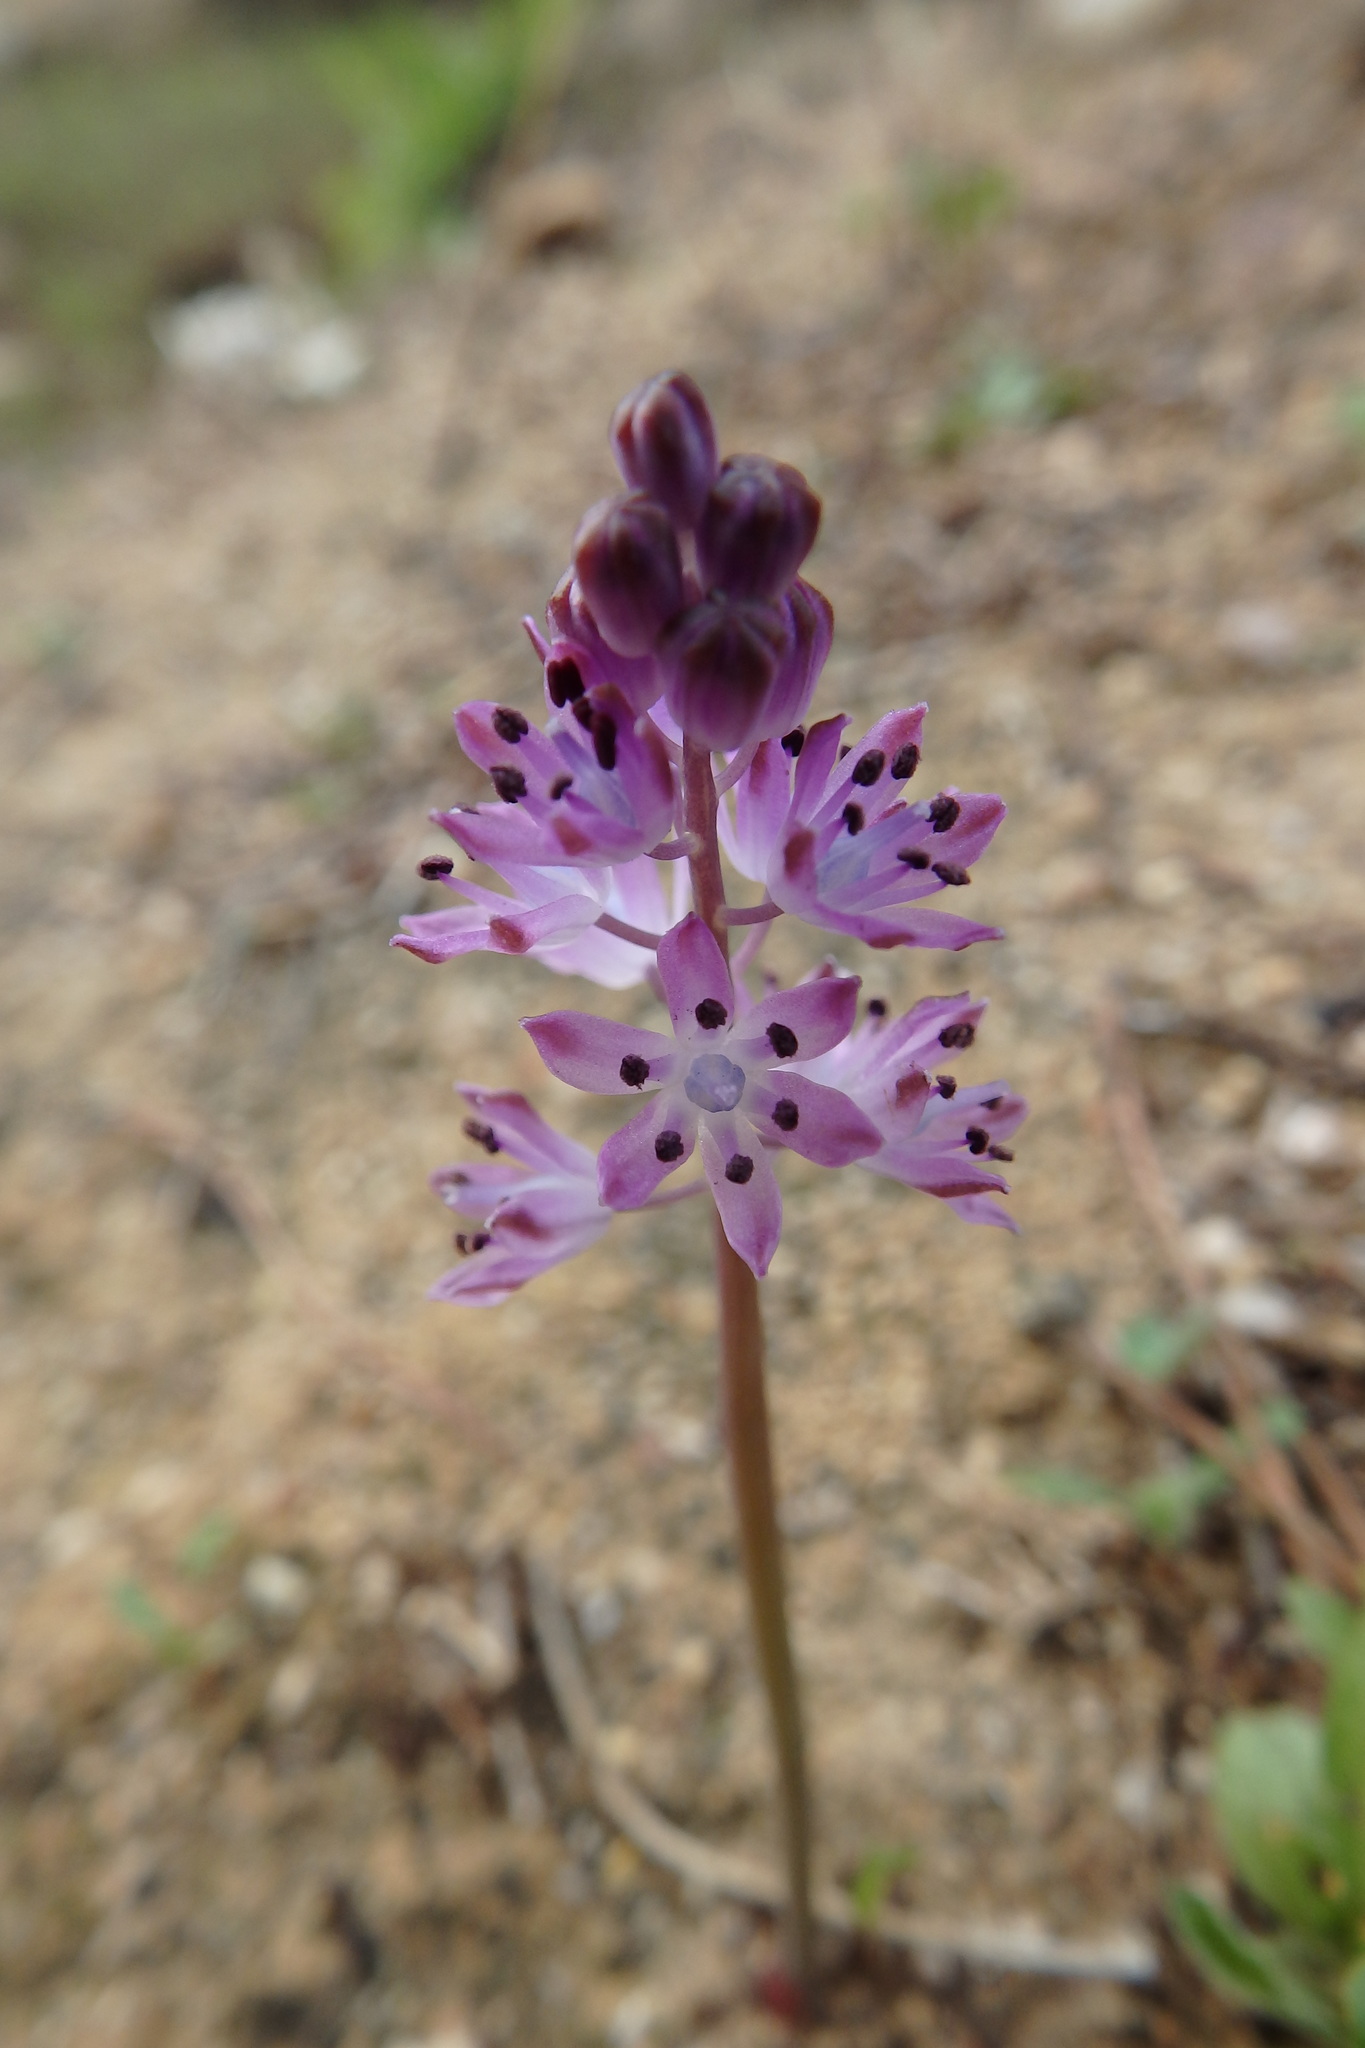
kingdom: Plantae
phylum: Tracheophyta
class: Liliopsida
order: Asparagales
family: Asparagaceae
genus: Prospero
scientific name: Prospero autumnale
